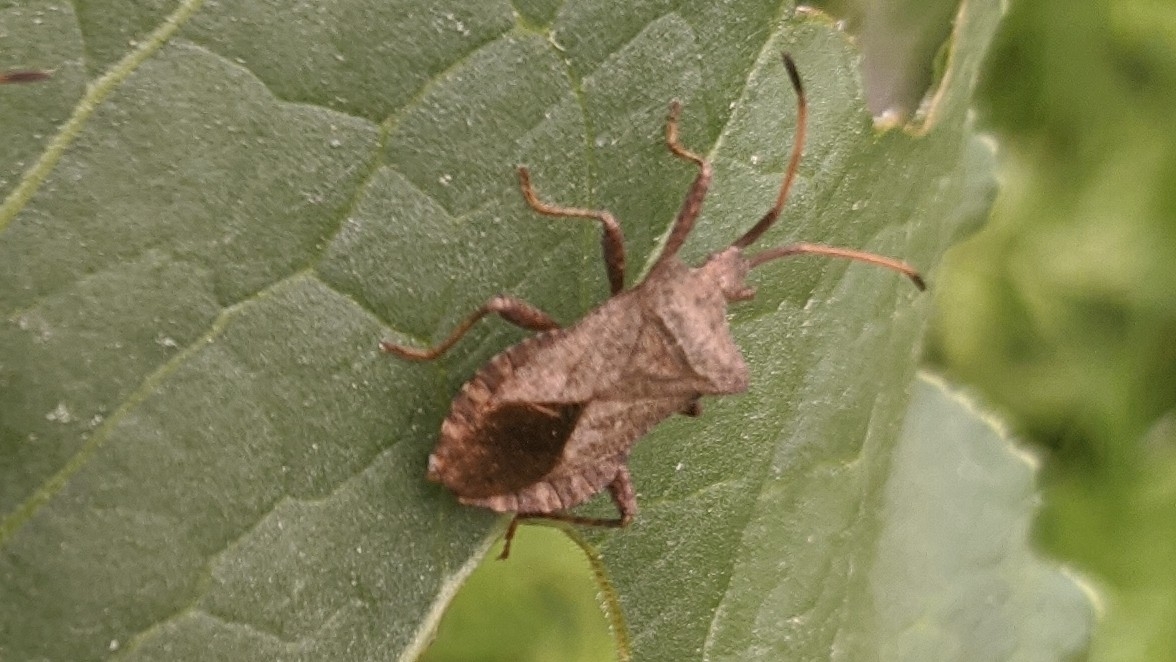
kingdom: Animalia
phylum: Arthropoda
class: Insecta
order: Hemiptera
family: Coreidae
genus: Coreus
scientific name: Coreus marginatus
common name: Dock bug
